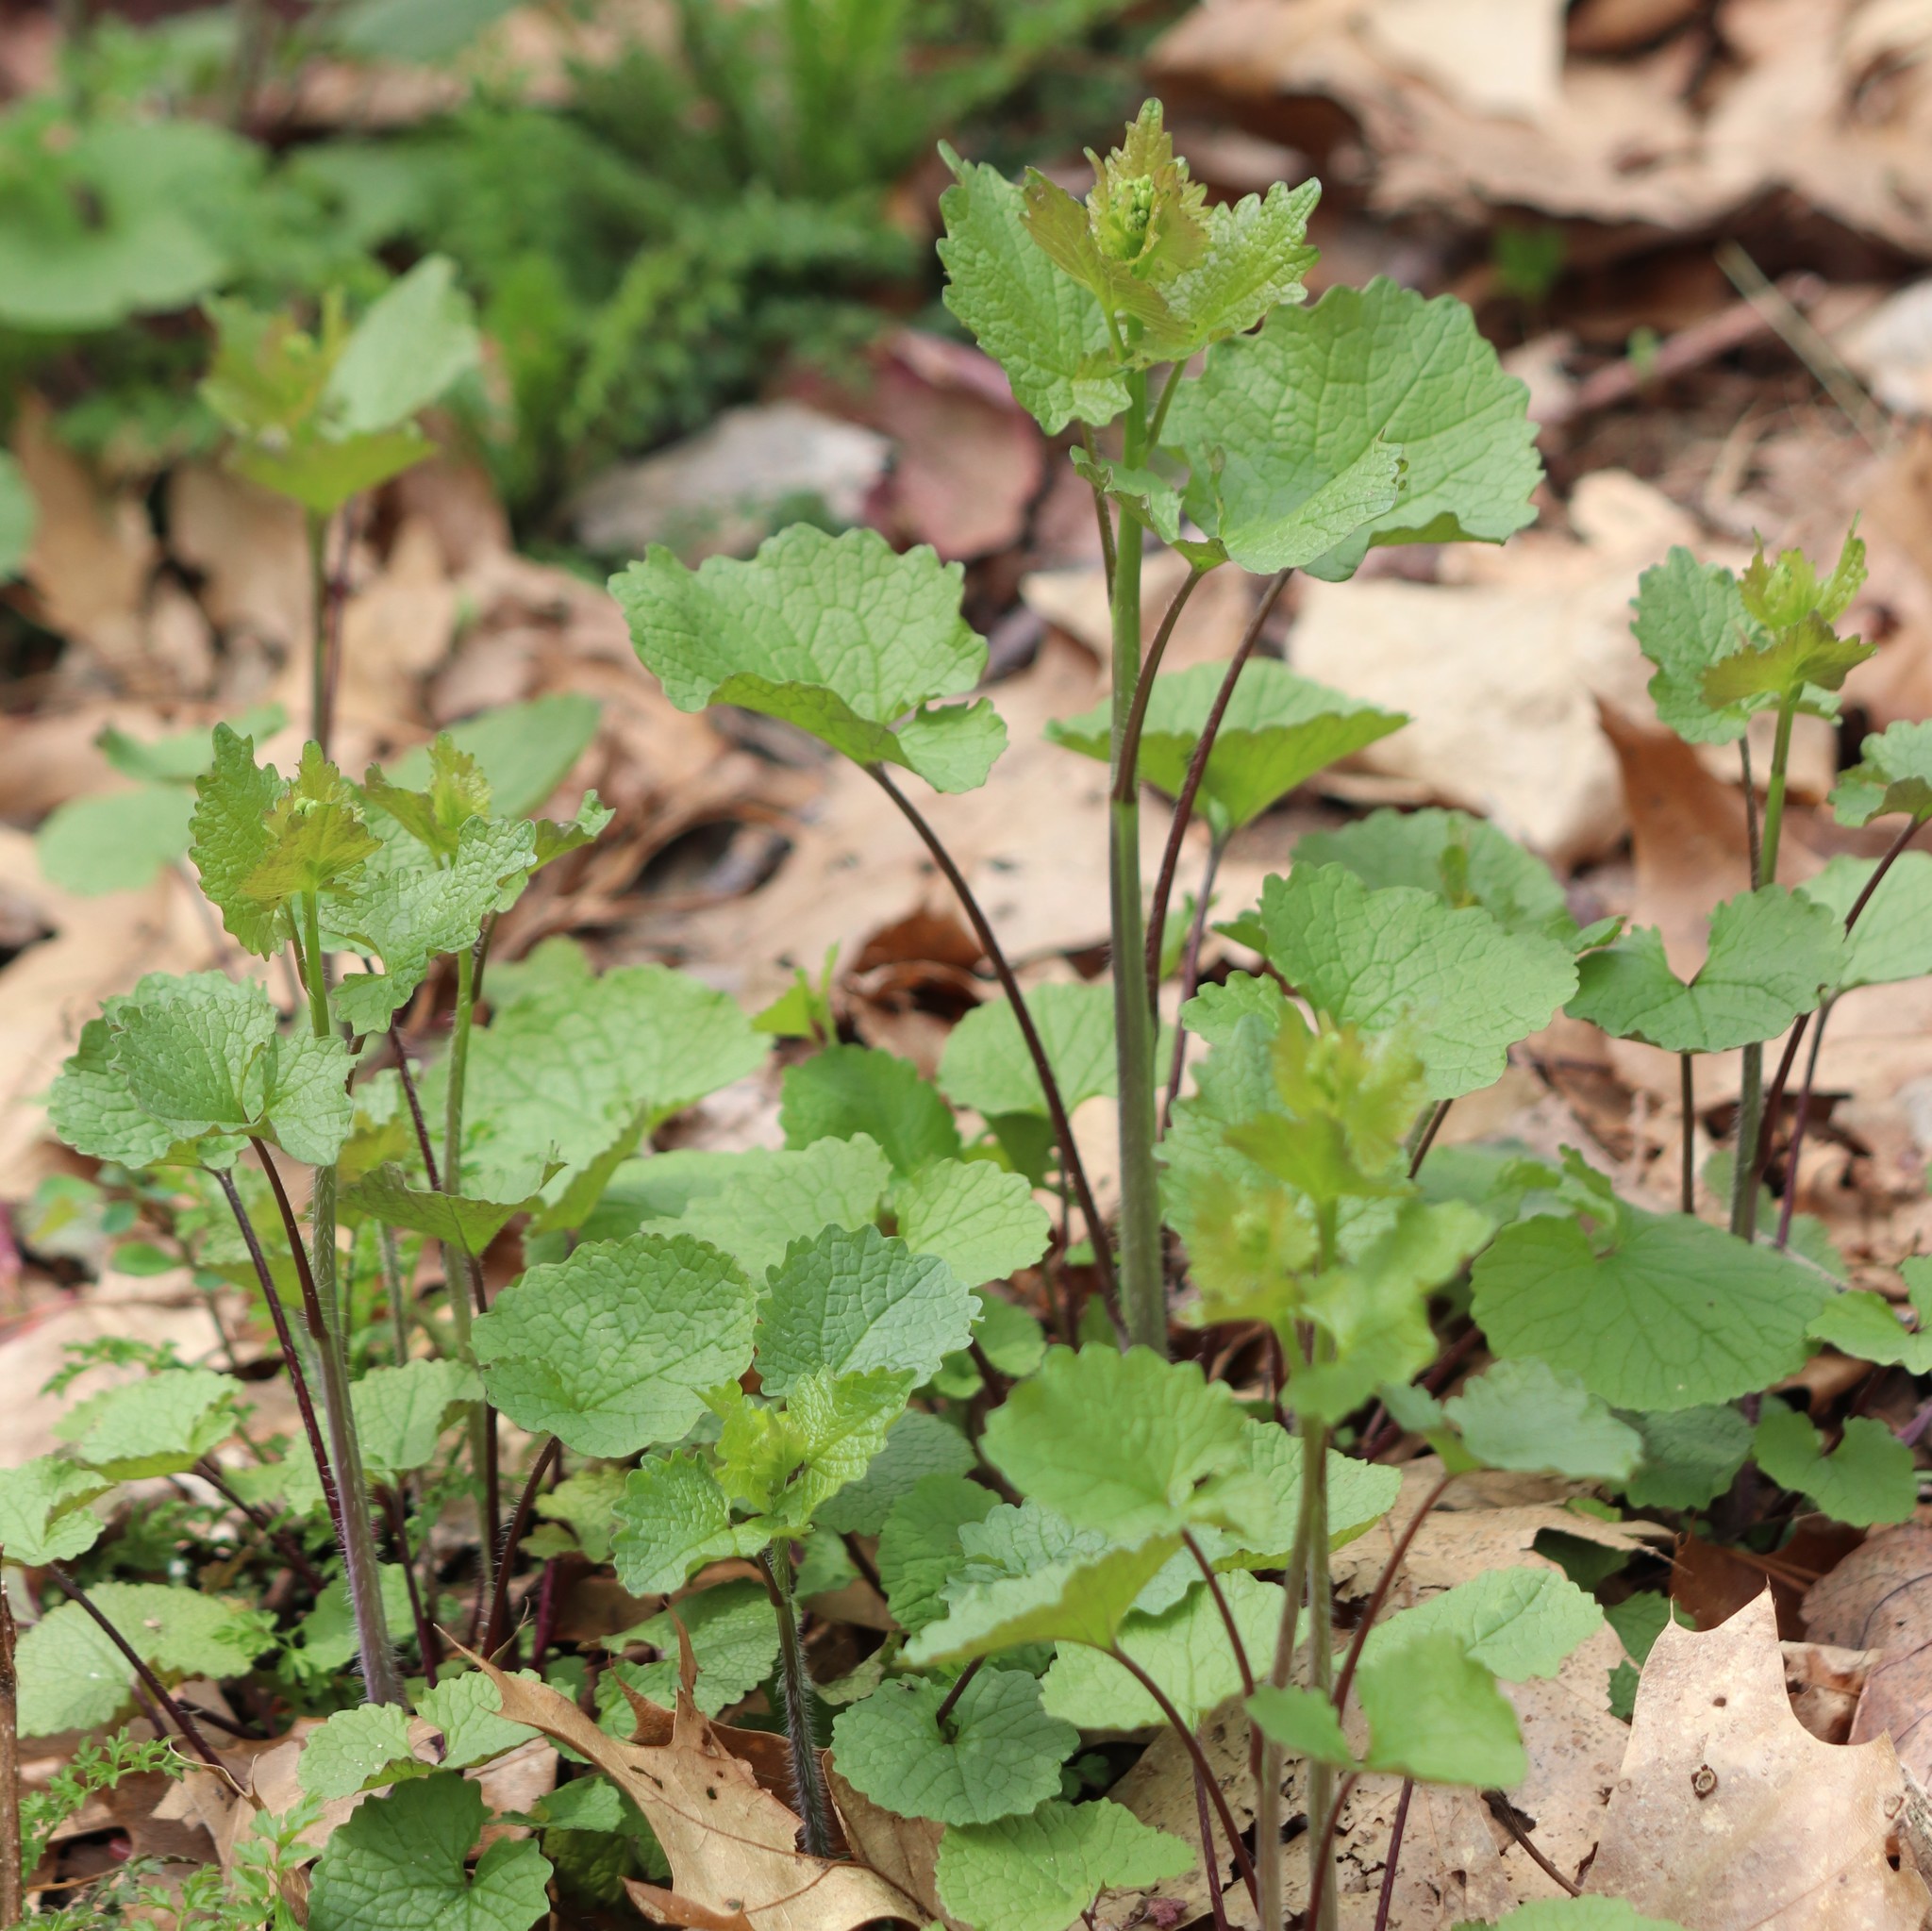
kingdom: Plantae
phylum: Tracheophyta
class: Magnoliopsida
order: Brassicales
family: Brassicaceae
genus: Alliaria
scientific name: Alliaria petiolata
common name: Garlic mustard
